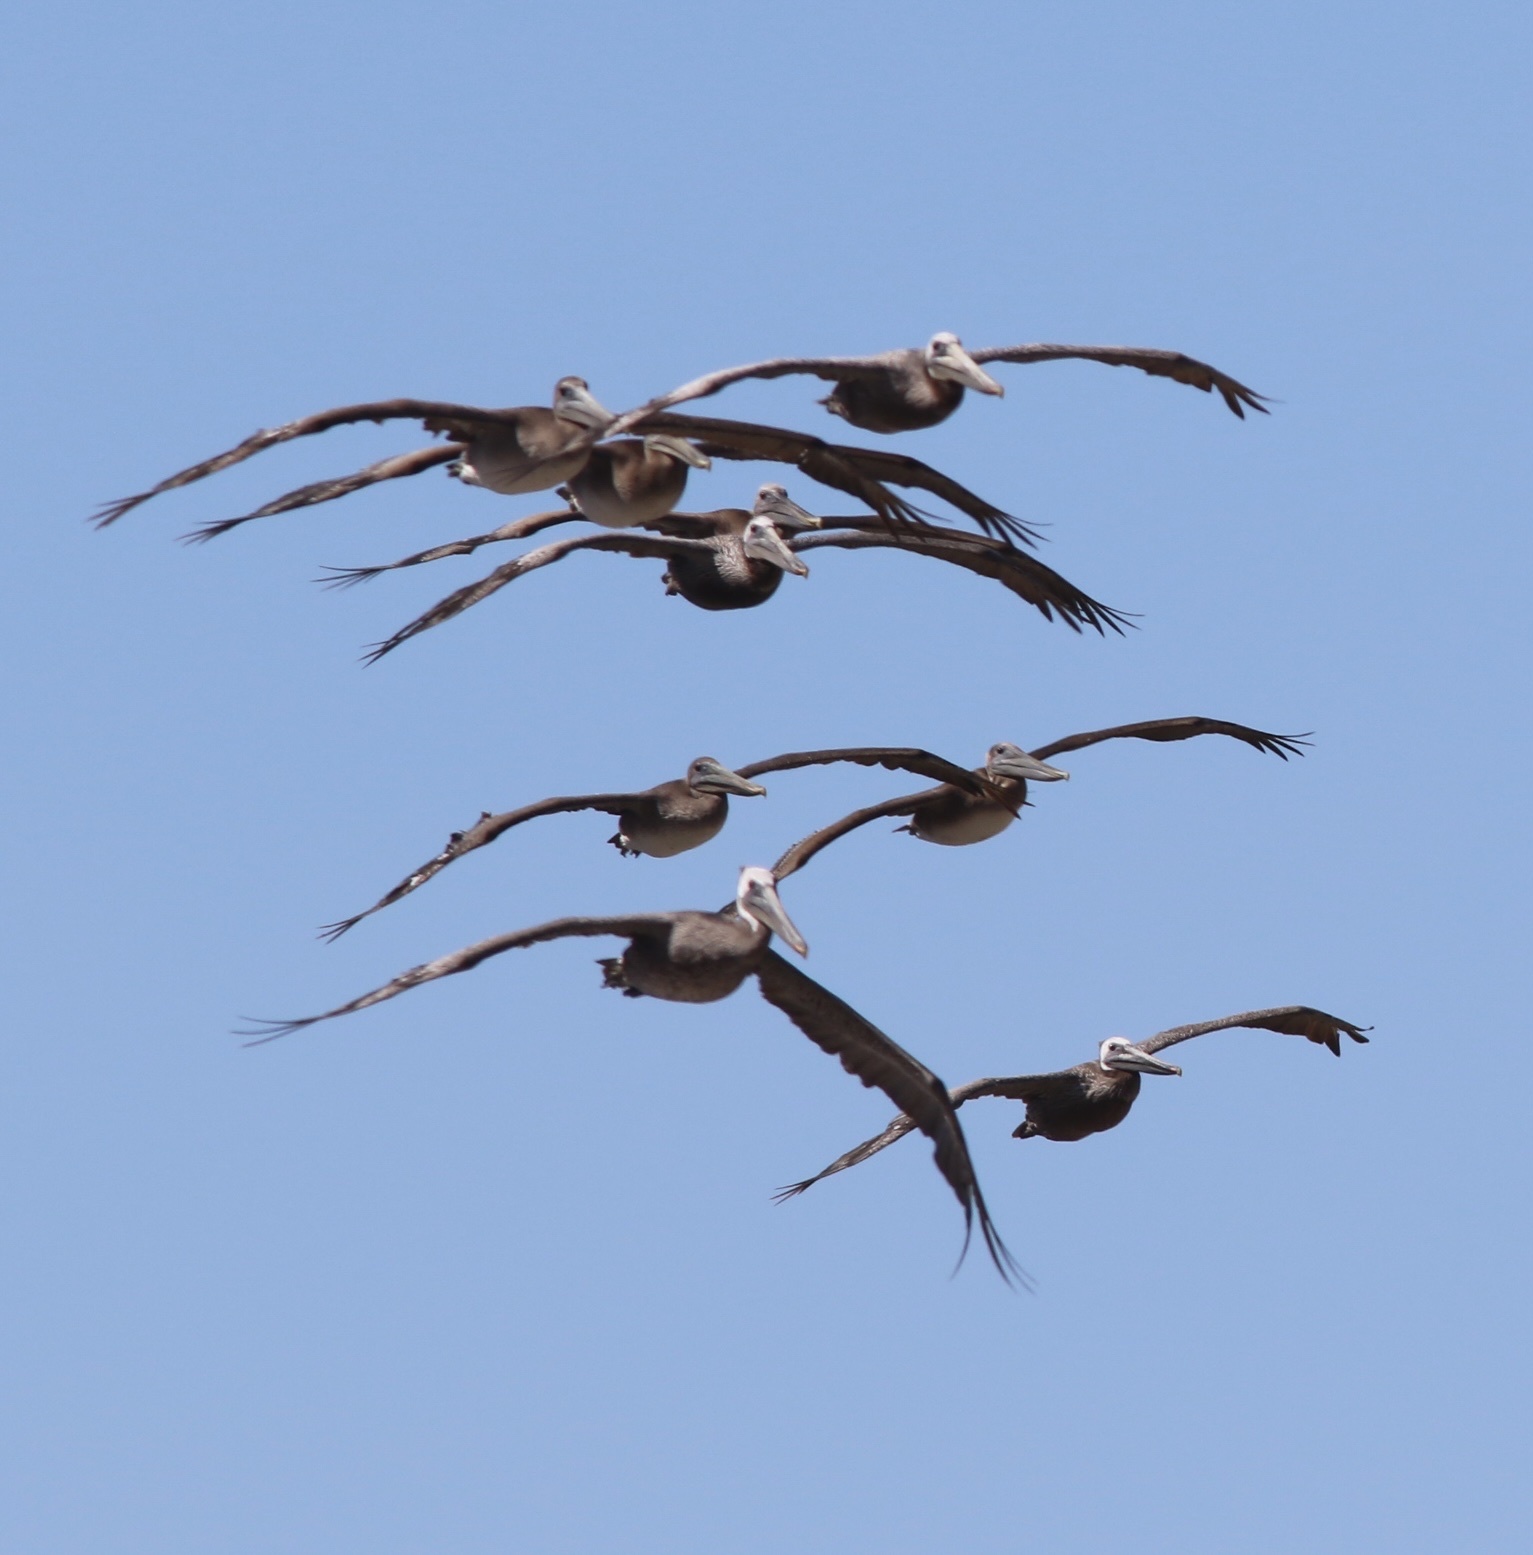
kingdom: Animalia
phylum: Chordata
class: Aves
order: Pelecaniformes
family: Pelecanidae
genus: Pelecanus
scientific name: Pelecanus occidentalis
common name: Brown pelican
